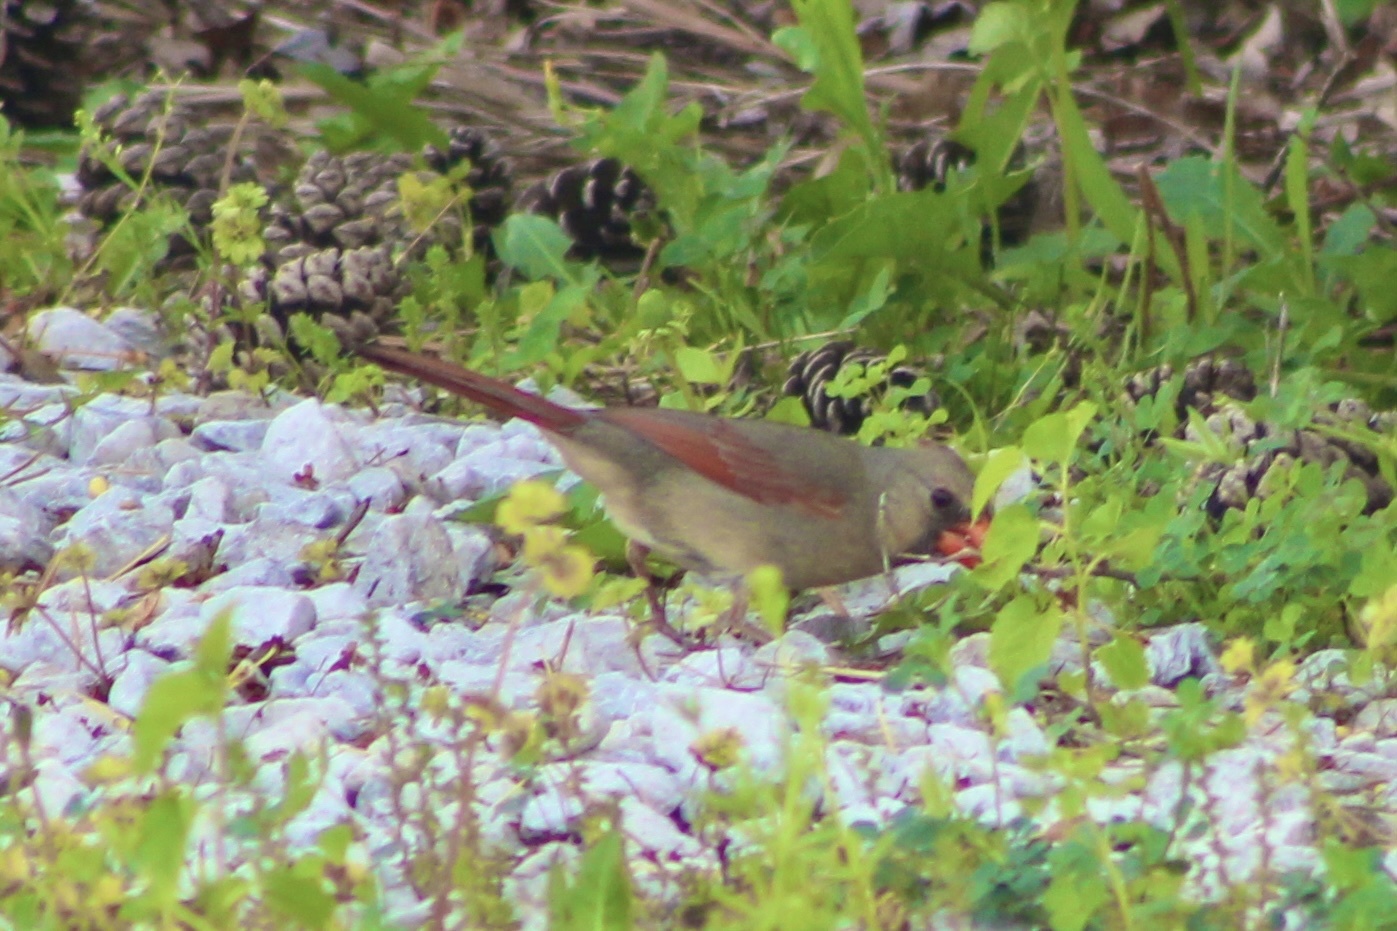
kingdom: Animalia
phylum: Chordata
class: Aves
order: Passeriformes
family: Cardinalidae
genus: Cardinalis
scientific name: Cardinalis cardinalis
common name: Northern cardinal
